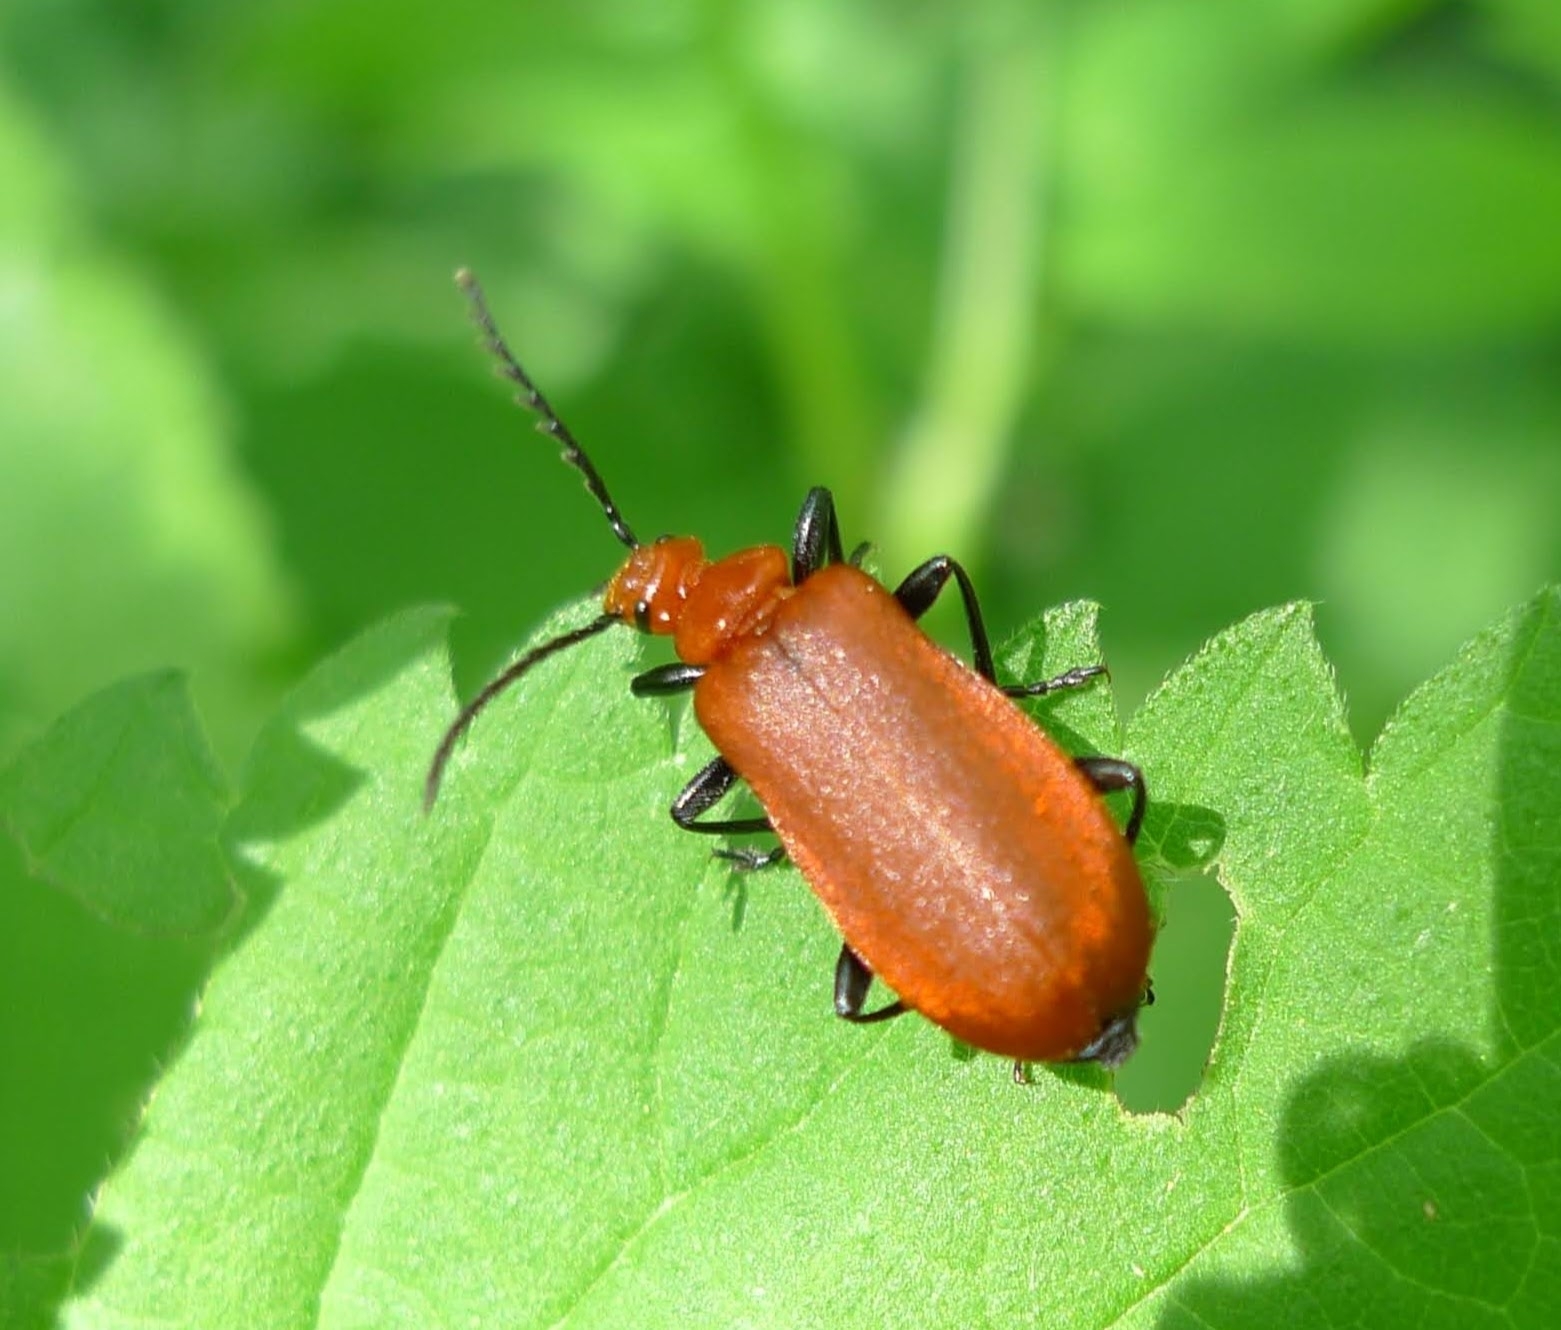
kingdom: Animalia
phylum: Arthropoda
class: Insecta
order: Coleoptera
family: Pyrochroidae
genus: Pyrochroa
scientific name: Pyrochroa serraticornis
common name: Red-headed cardinal beetle
